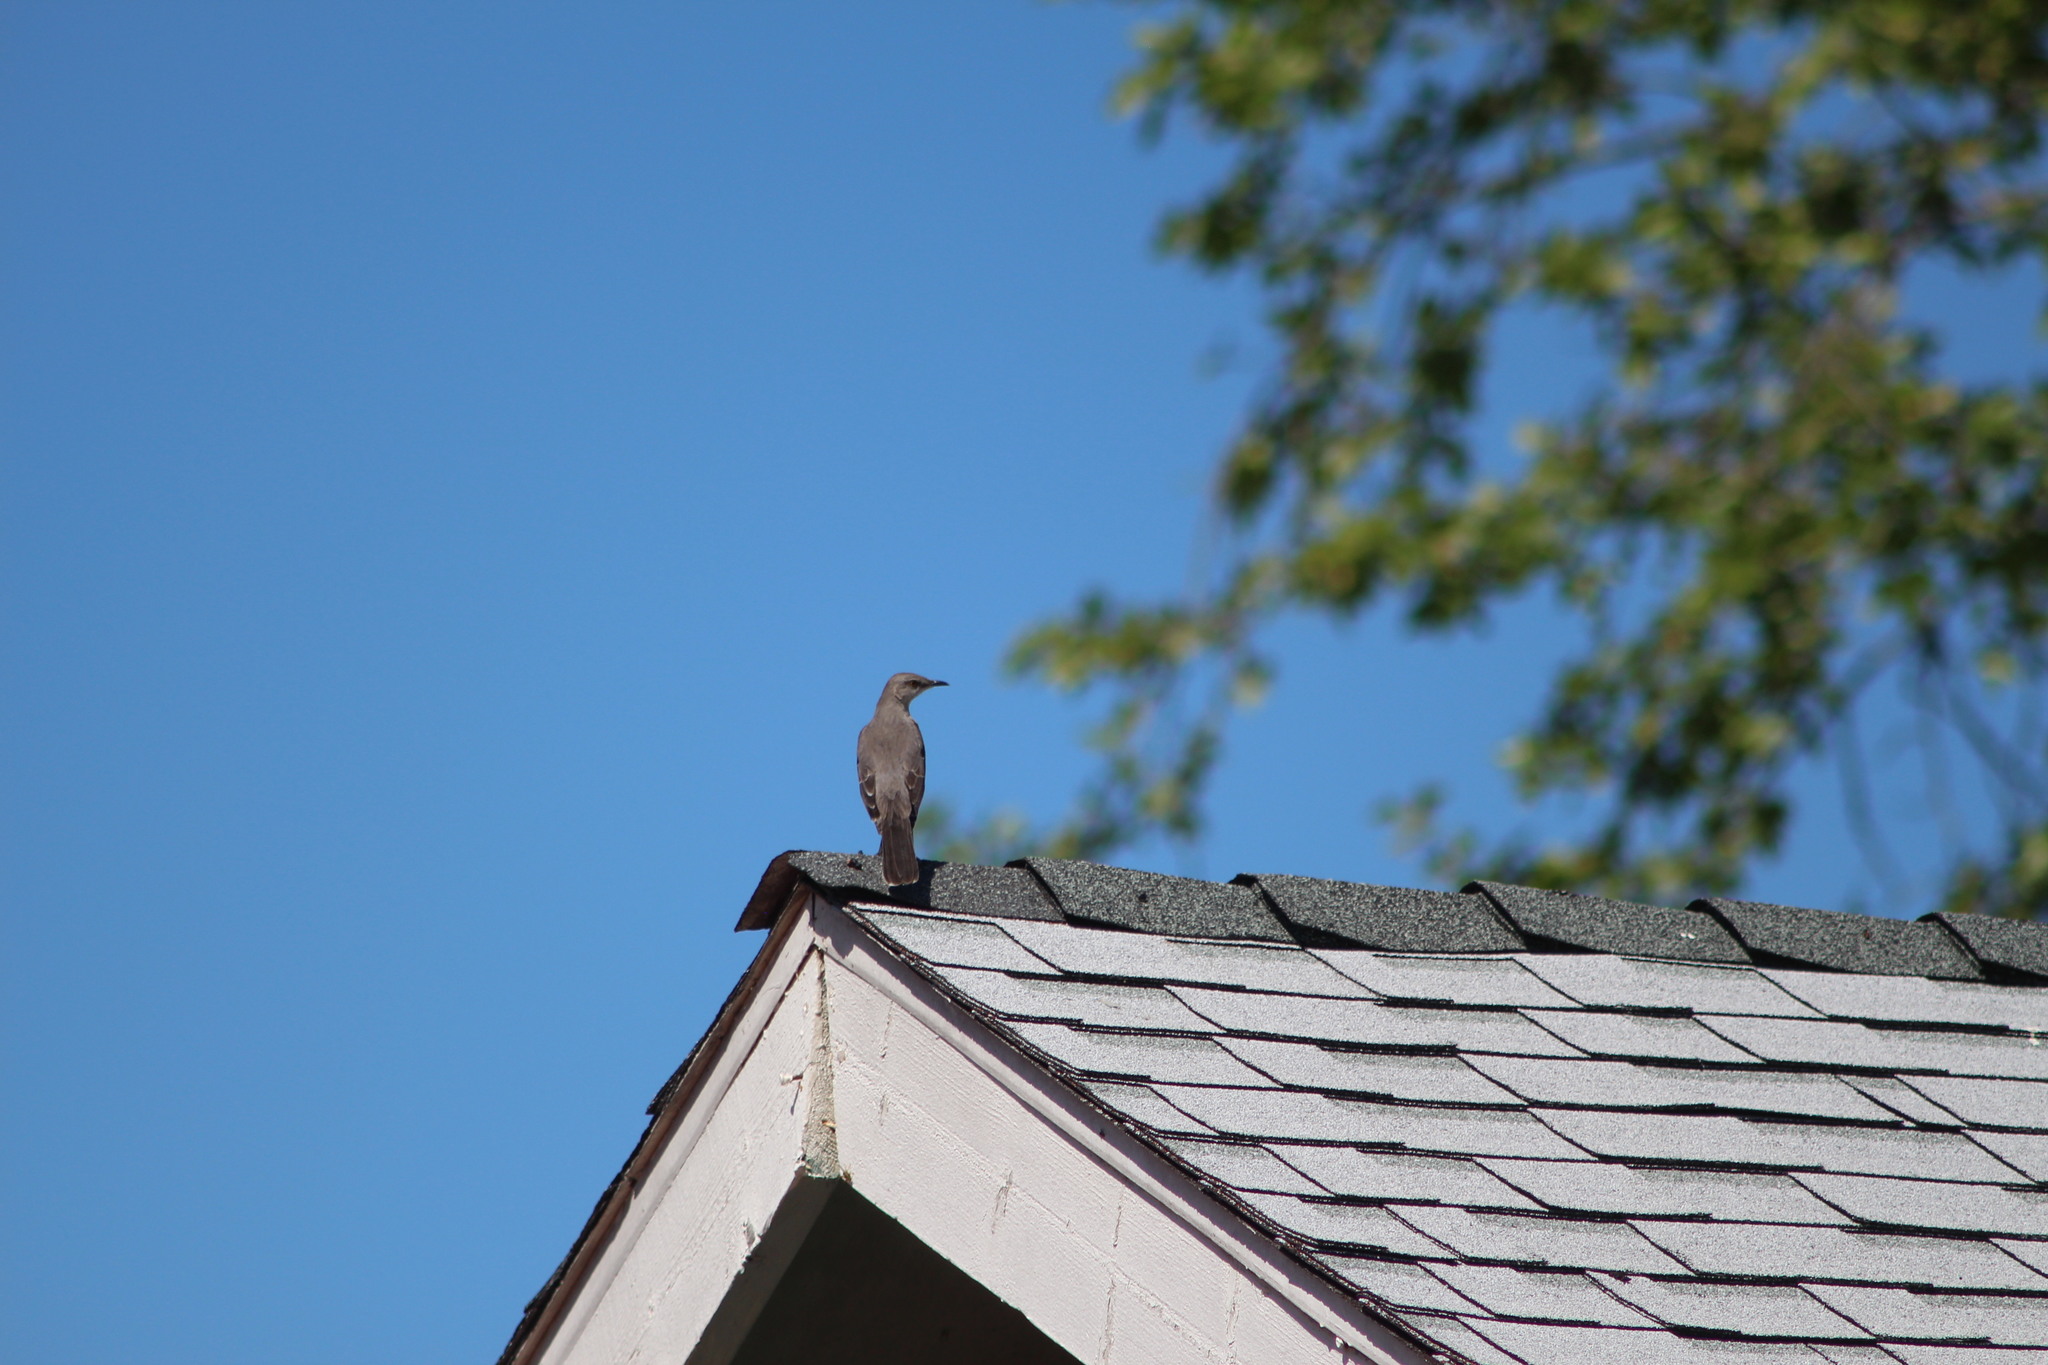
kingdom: Animalia
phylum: Chordata
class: Aves
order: Passeriformes
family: Mimidae
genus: Mimus
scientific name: Mimus polyglottos
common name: Northern mockingbird
